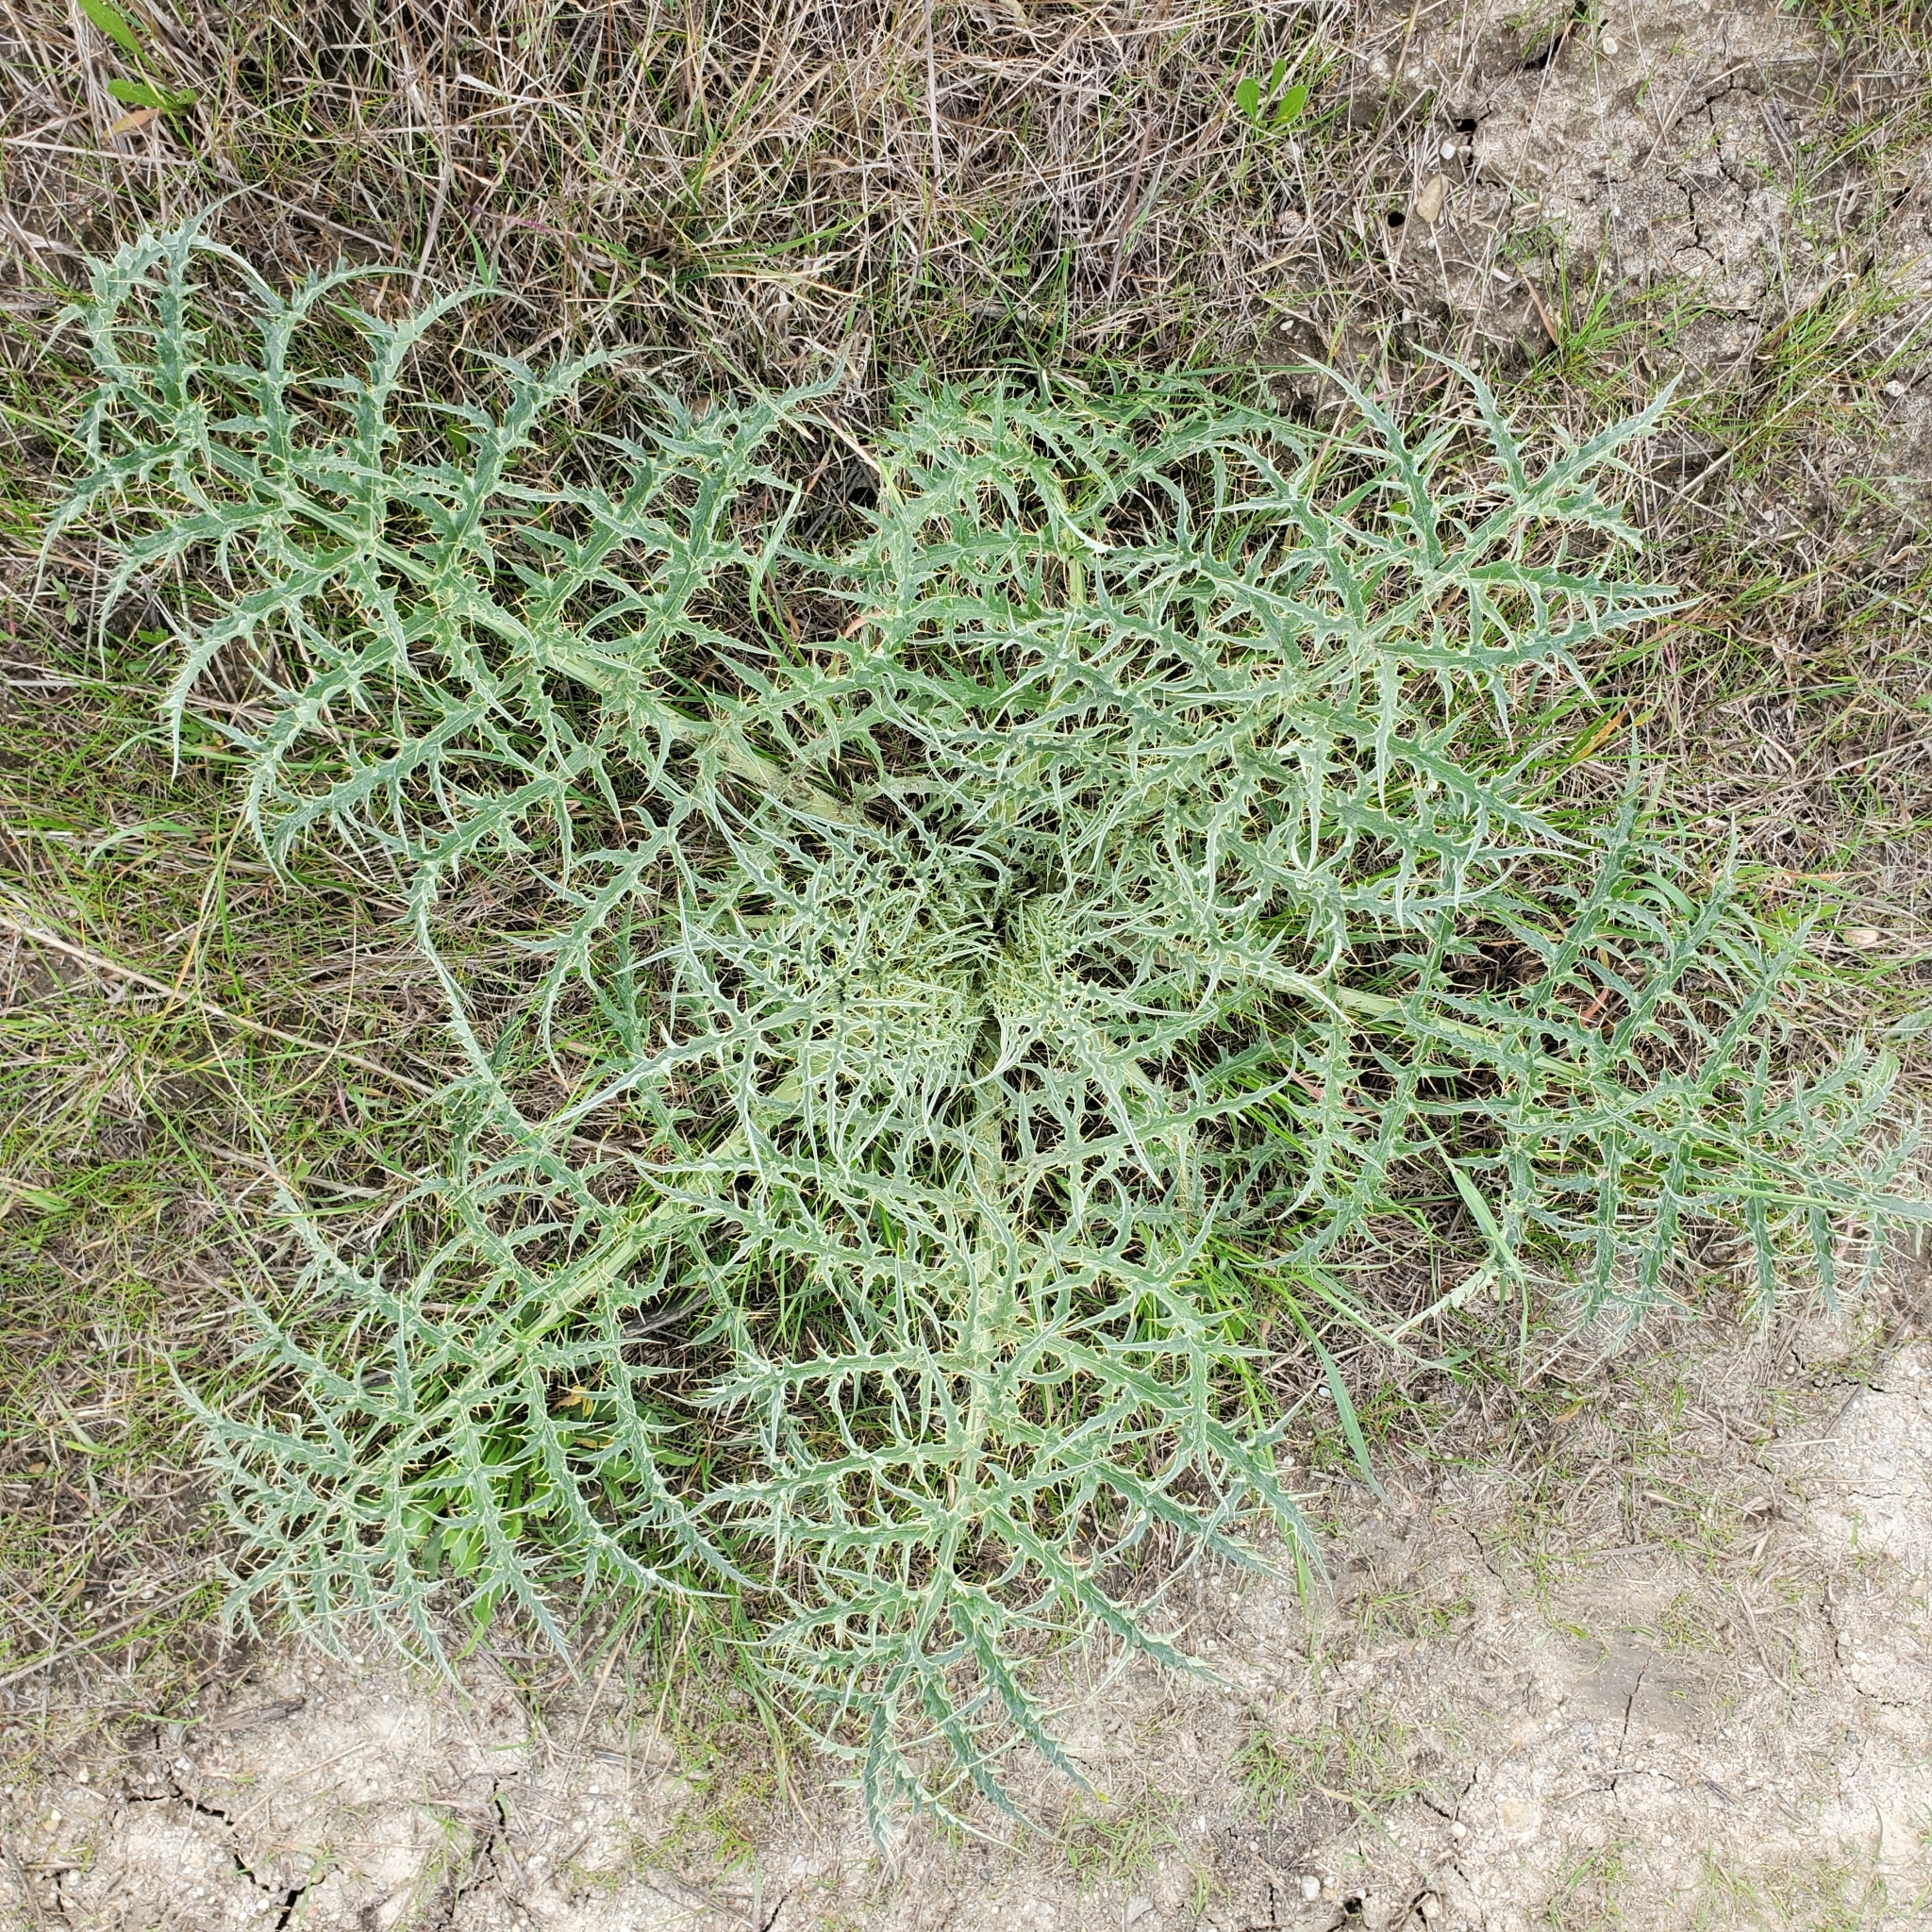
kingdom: Plantae
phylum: Tracheophyta
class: Magnoliopsida
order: Asterales
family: Asteraceae
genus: Cynara
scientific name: Cynara cardunculus
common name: Globe artichoke
